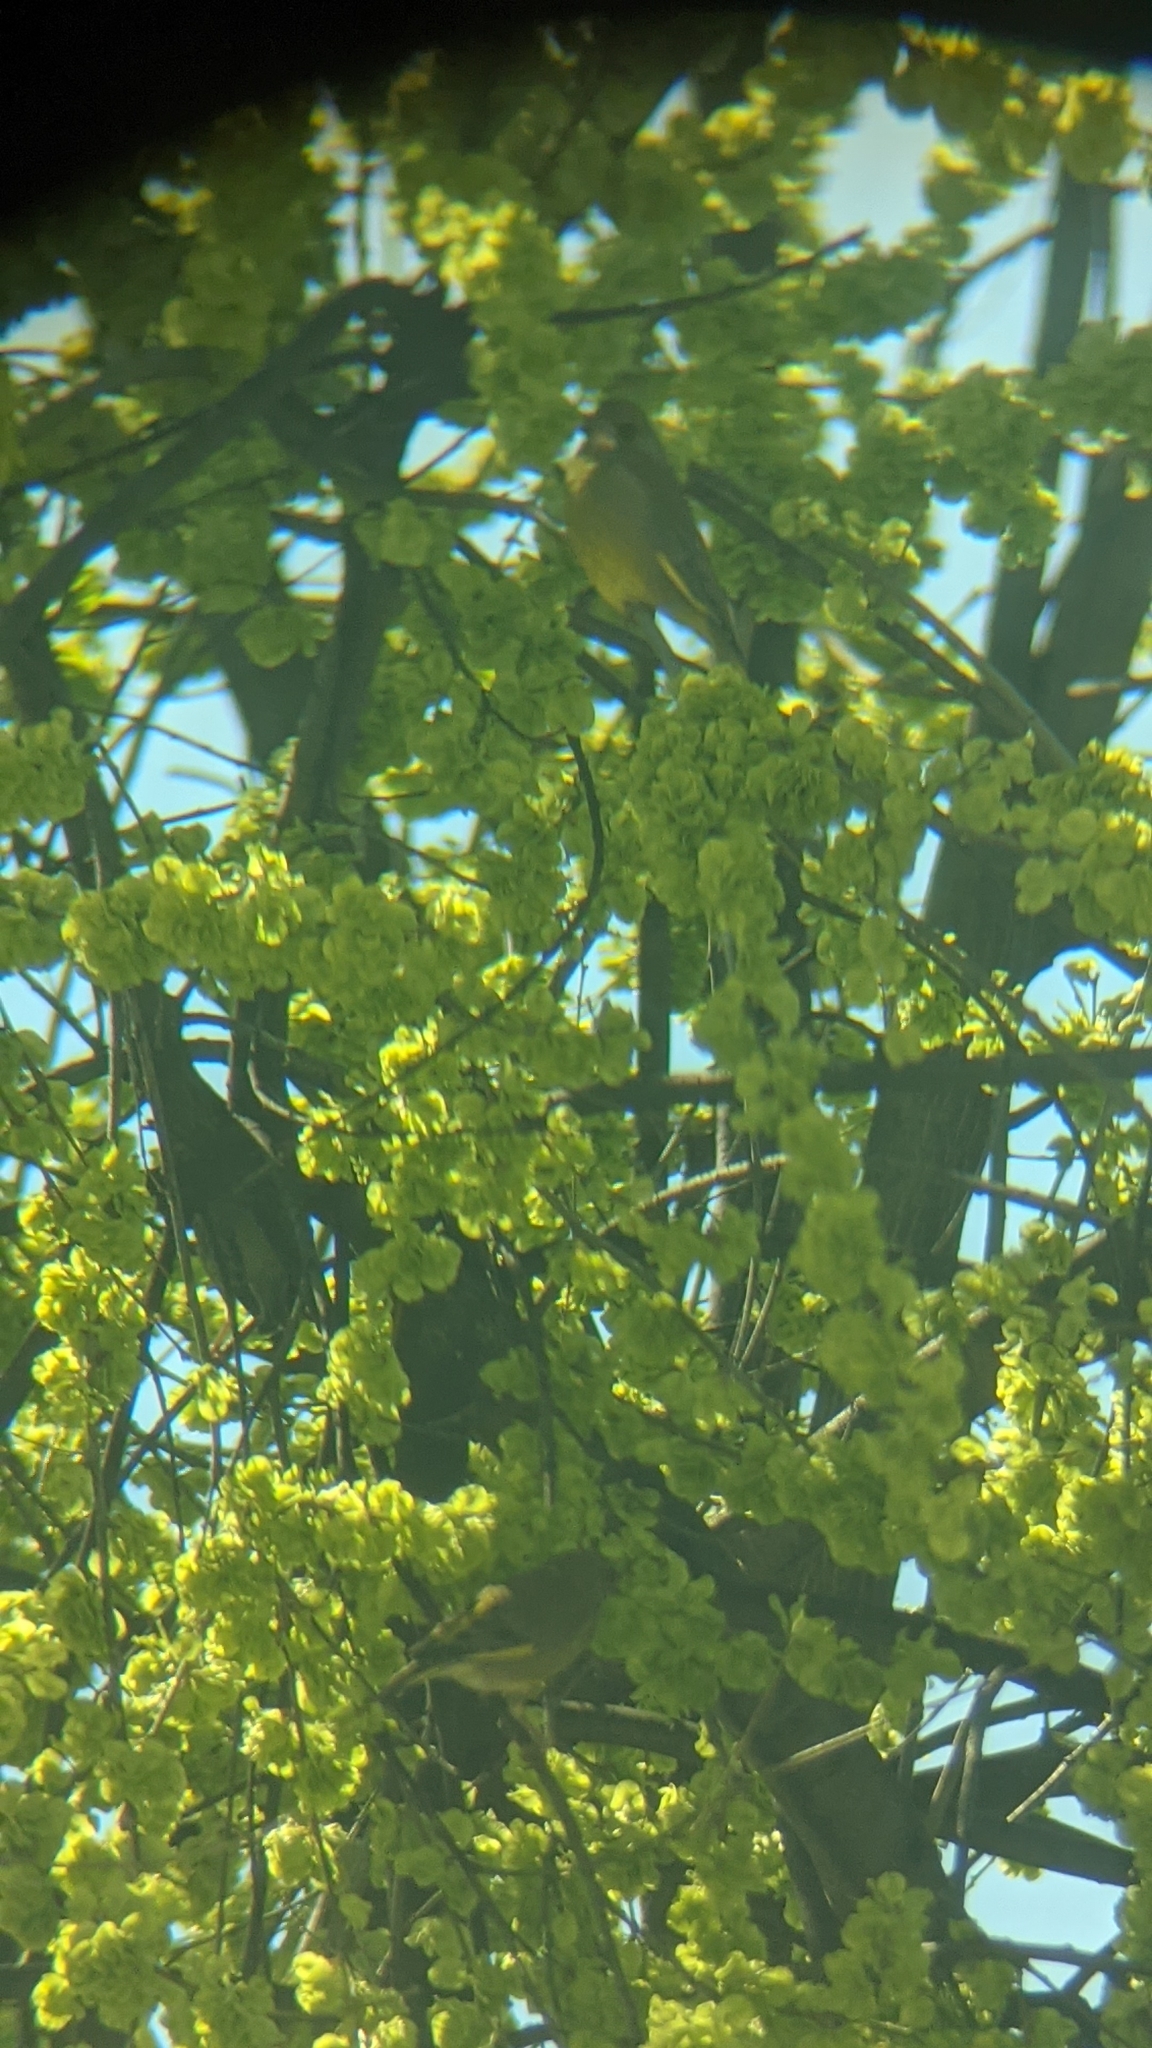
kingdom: Plantae
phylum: Tracheophyta
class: Liliopsida
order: Poales
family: Poaceae
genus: Chloris
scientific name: Chloris chloris
